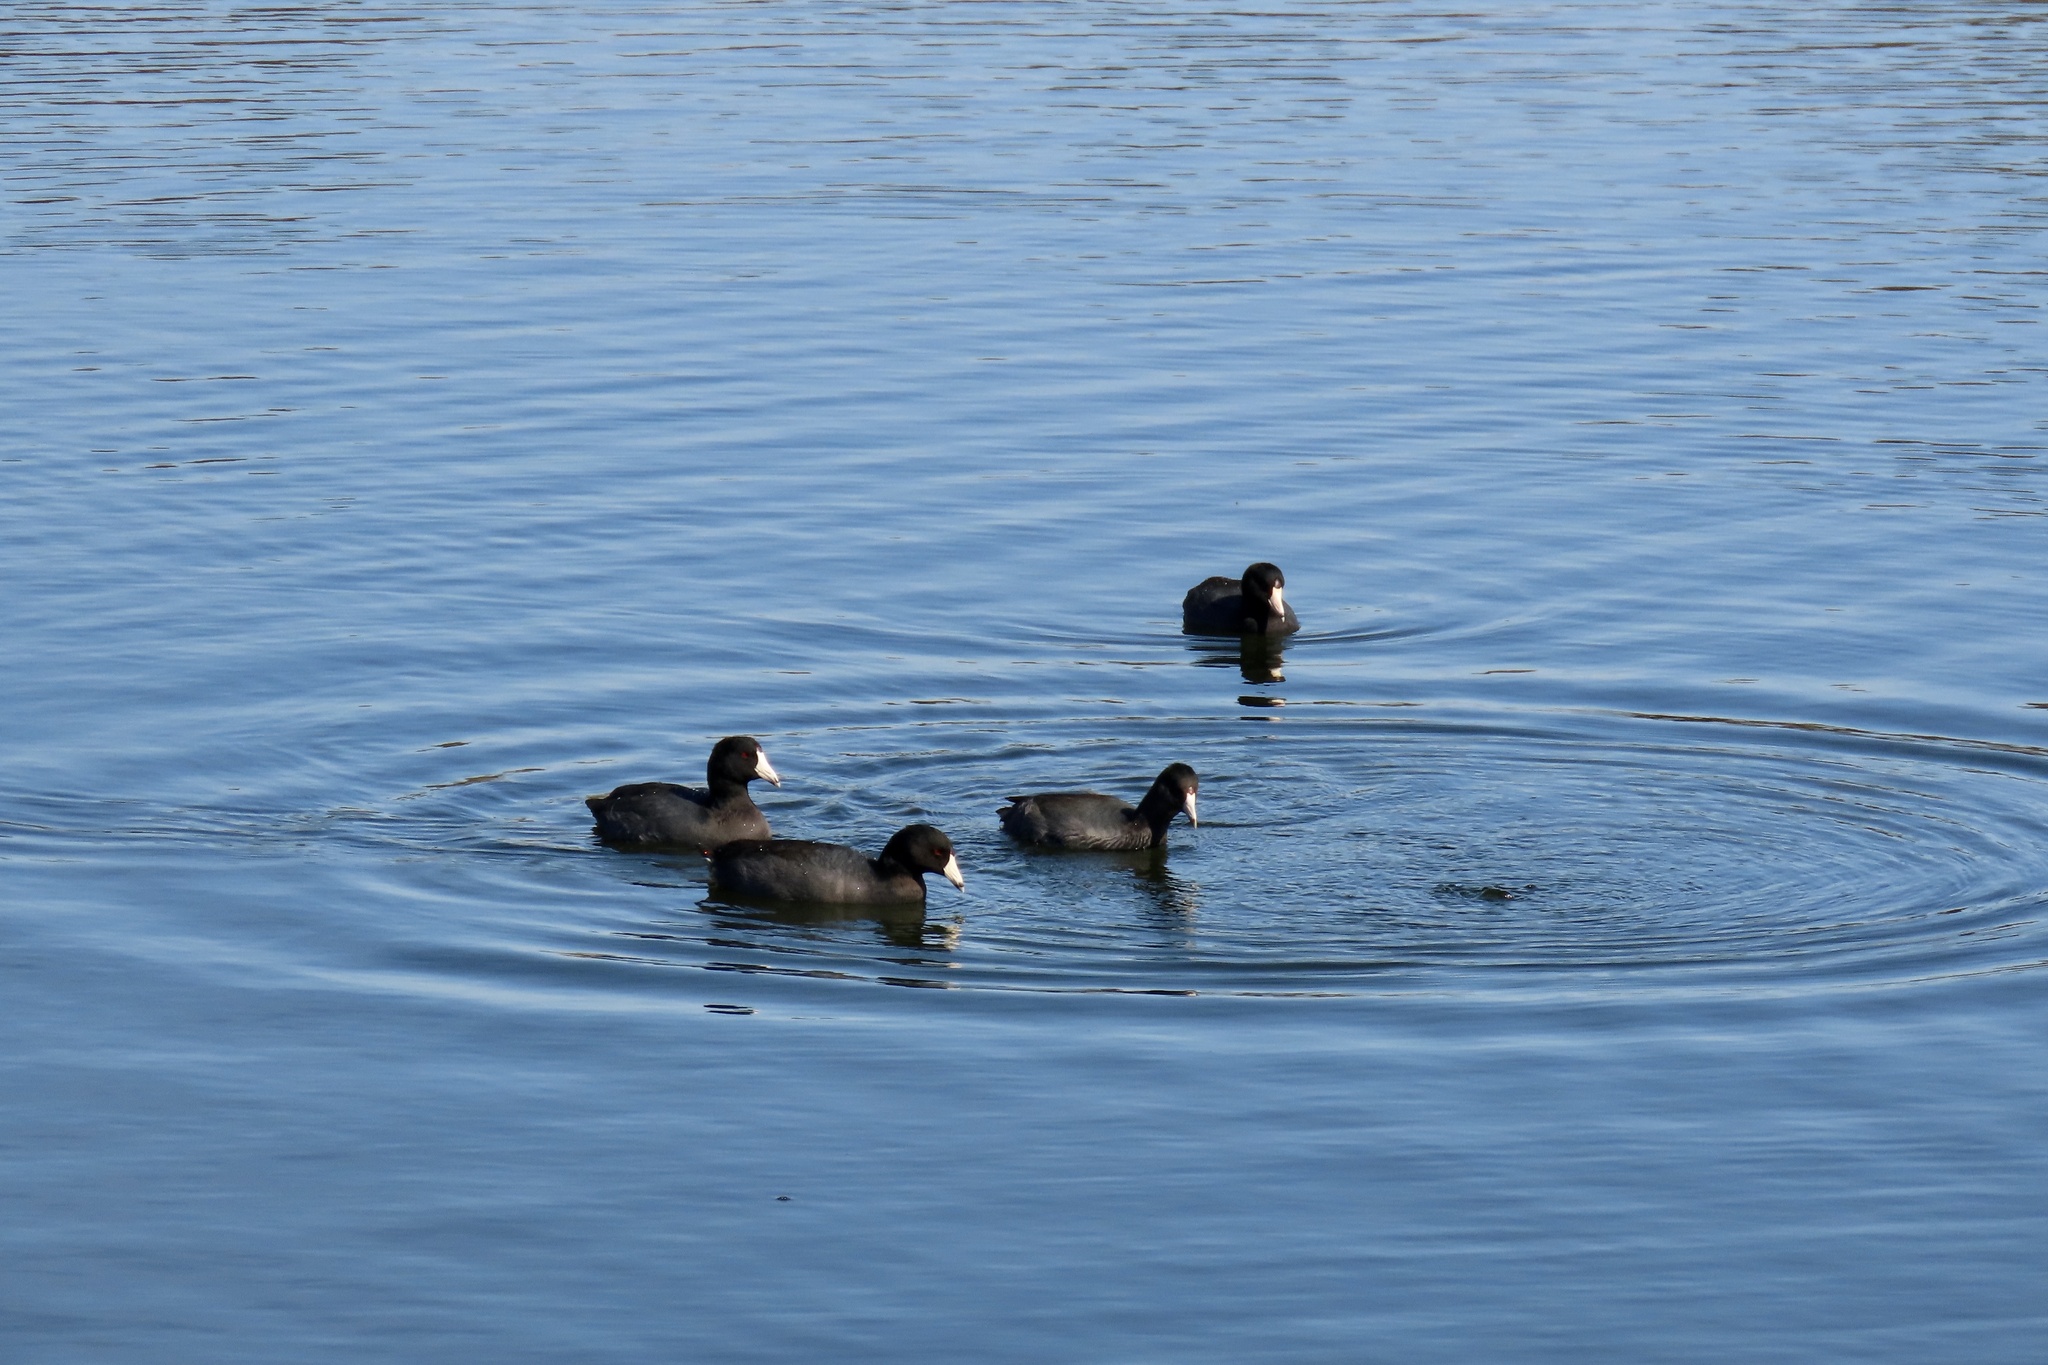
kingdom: Animalia
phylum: Chordata
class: Aves
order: Gruiformes
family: Rallidae
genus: Fulica
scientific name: Fulica americana
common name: American coot
